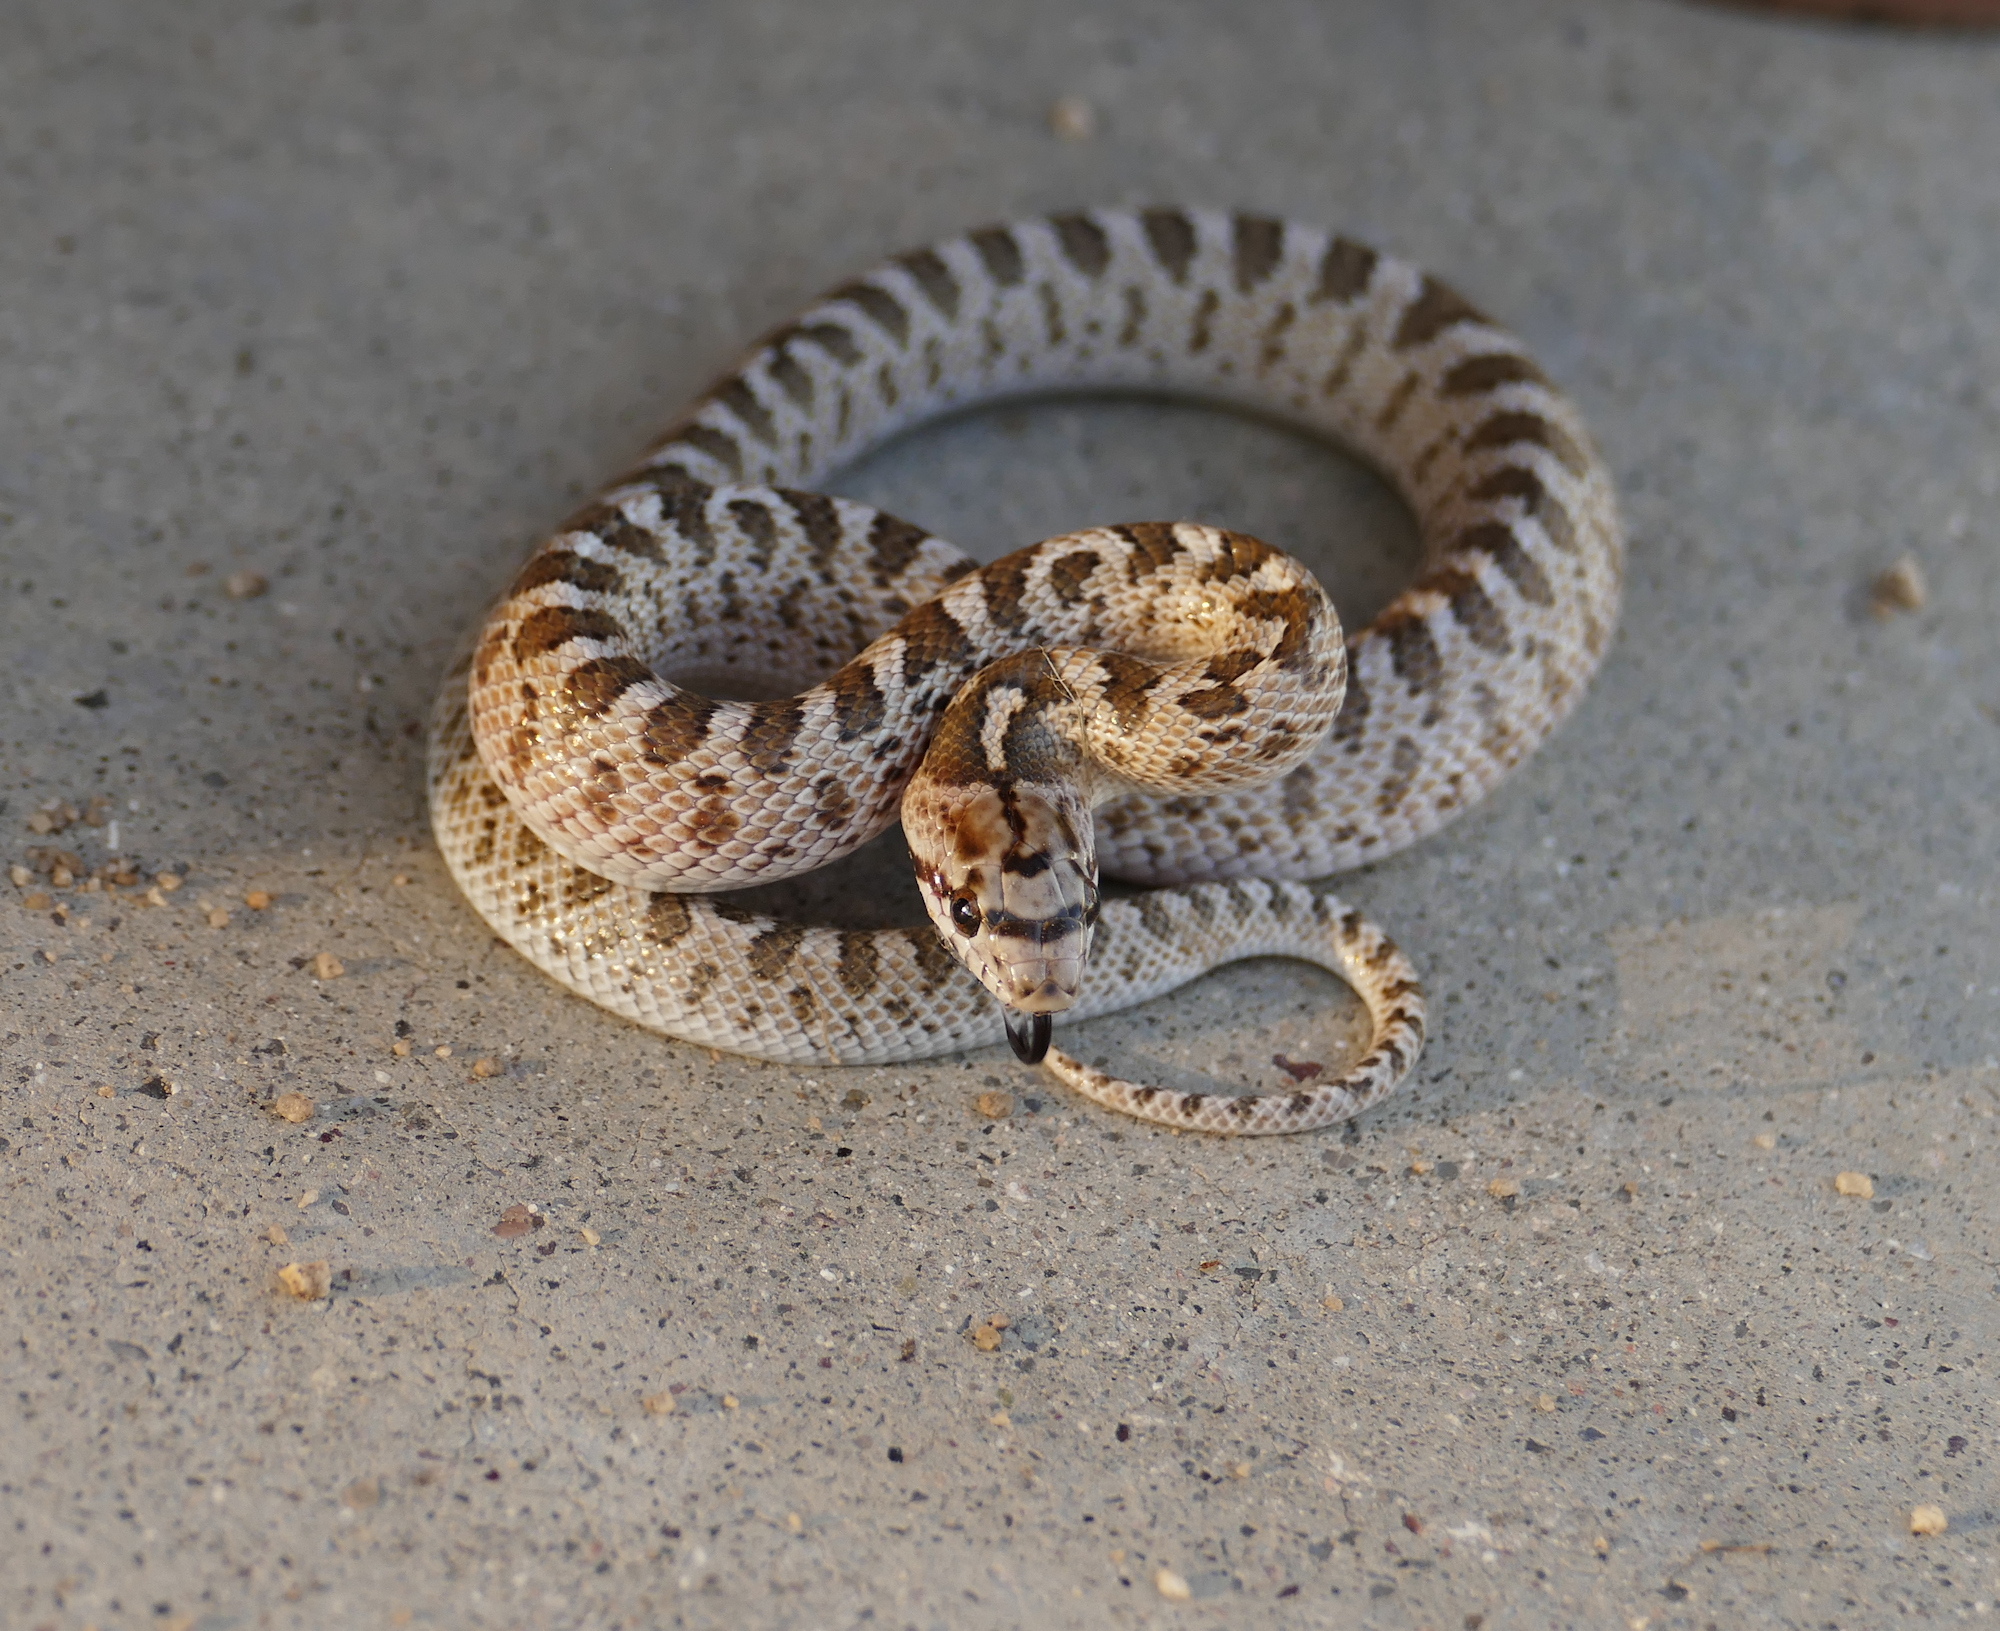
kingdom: Animalia
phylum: Chordata
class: Squamata
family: Colubridae
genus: Arizona
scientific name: Arizona elegans
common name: Glossy snake
